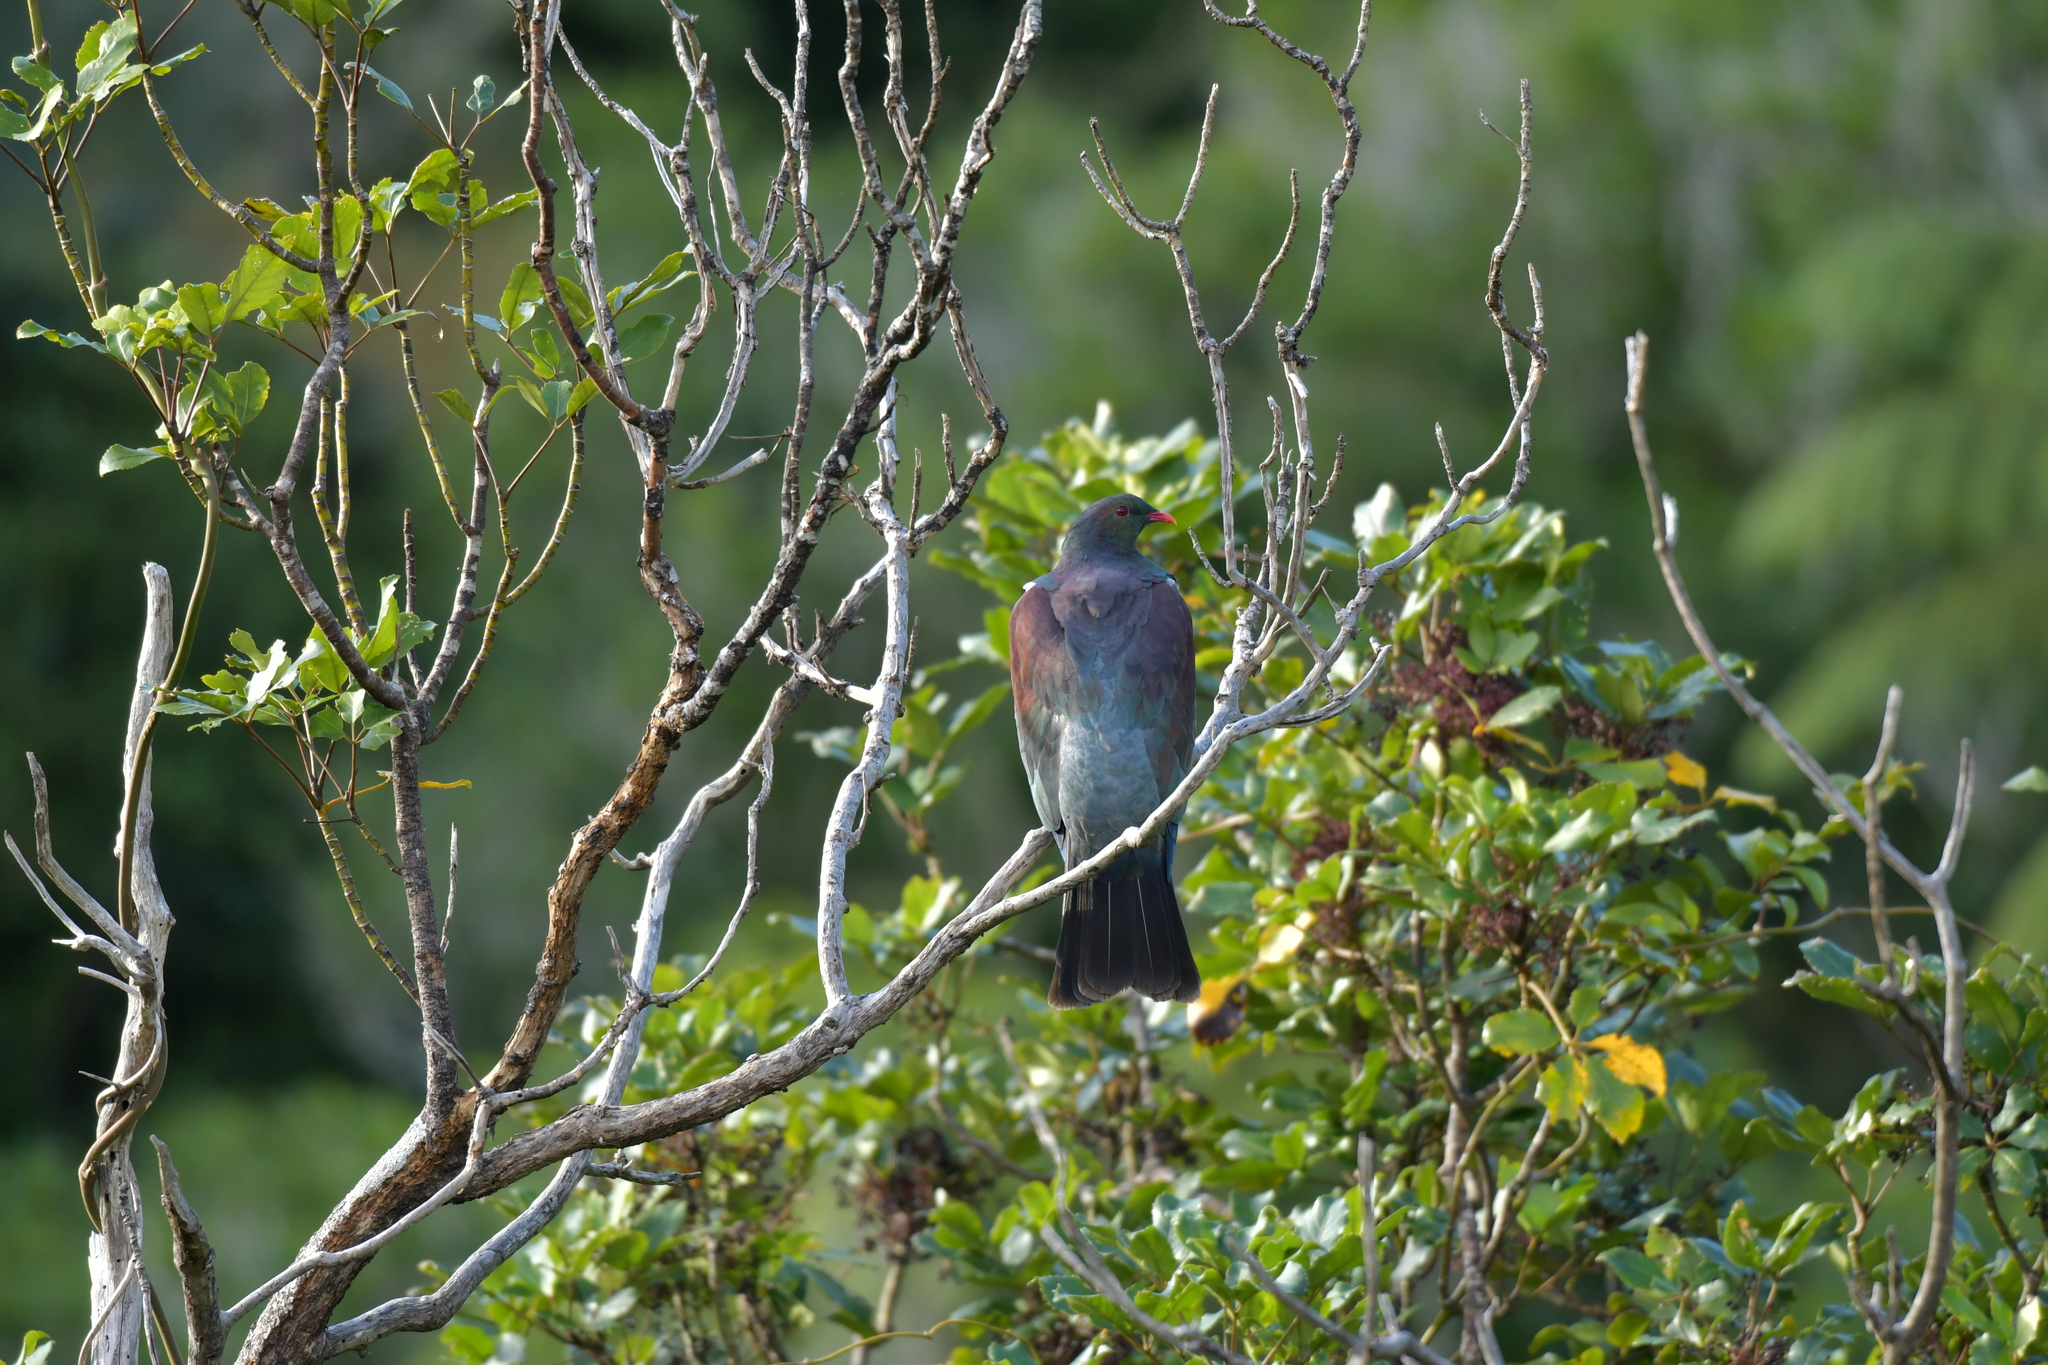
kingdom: Animalia
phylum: Chordata
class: Aves
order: Columbiformes
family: Columbidae
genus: Hemiphaga
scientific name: Hemiphaga novaeseelandiae
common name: New zealand pigeon
